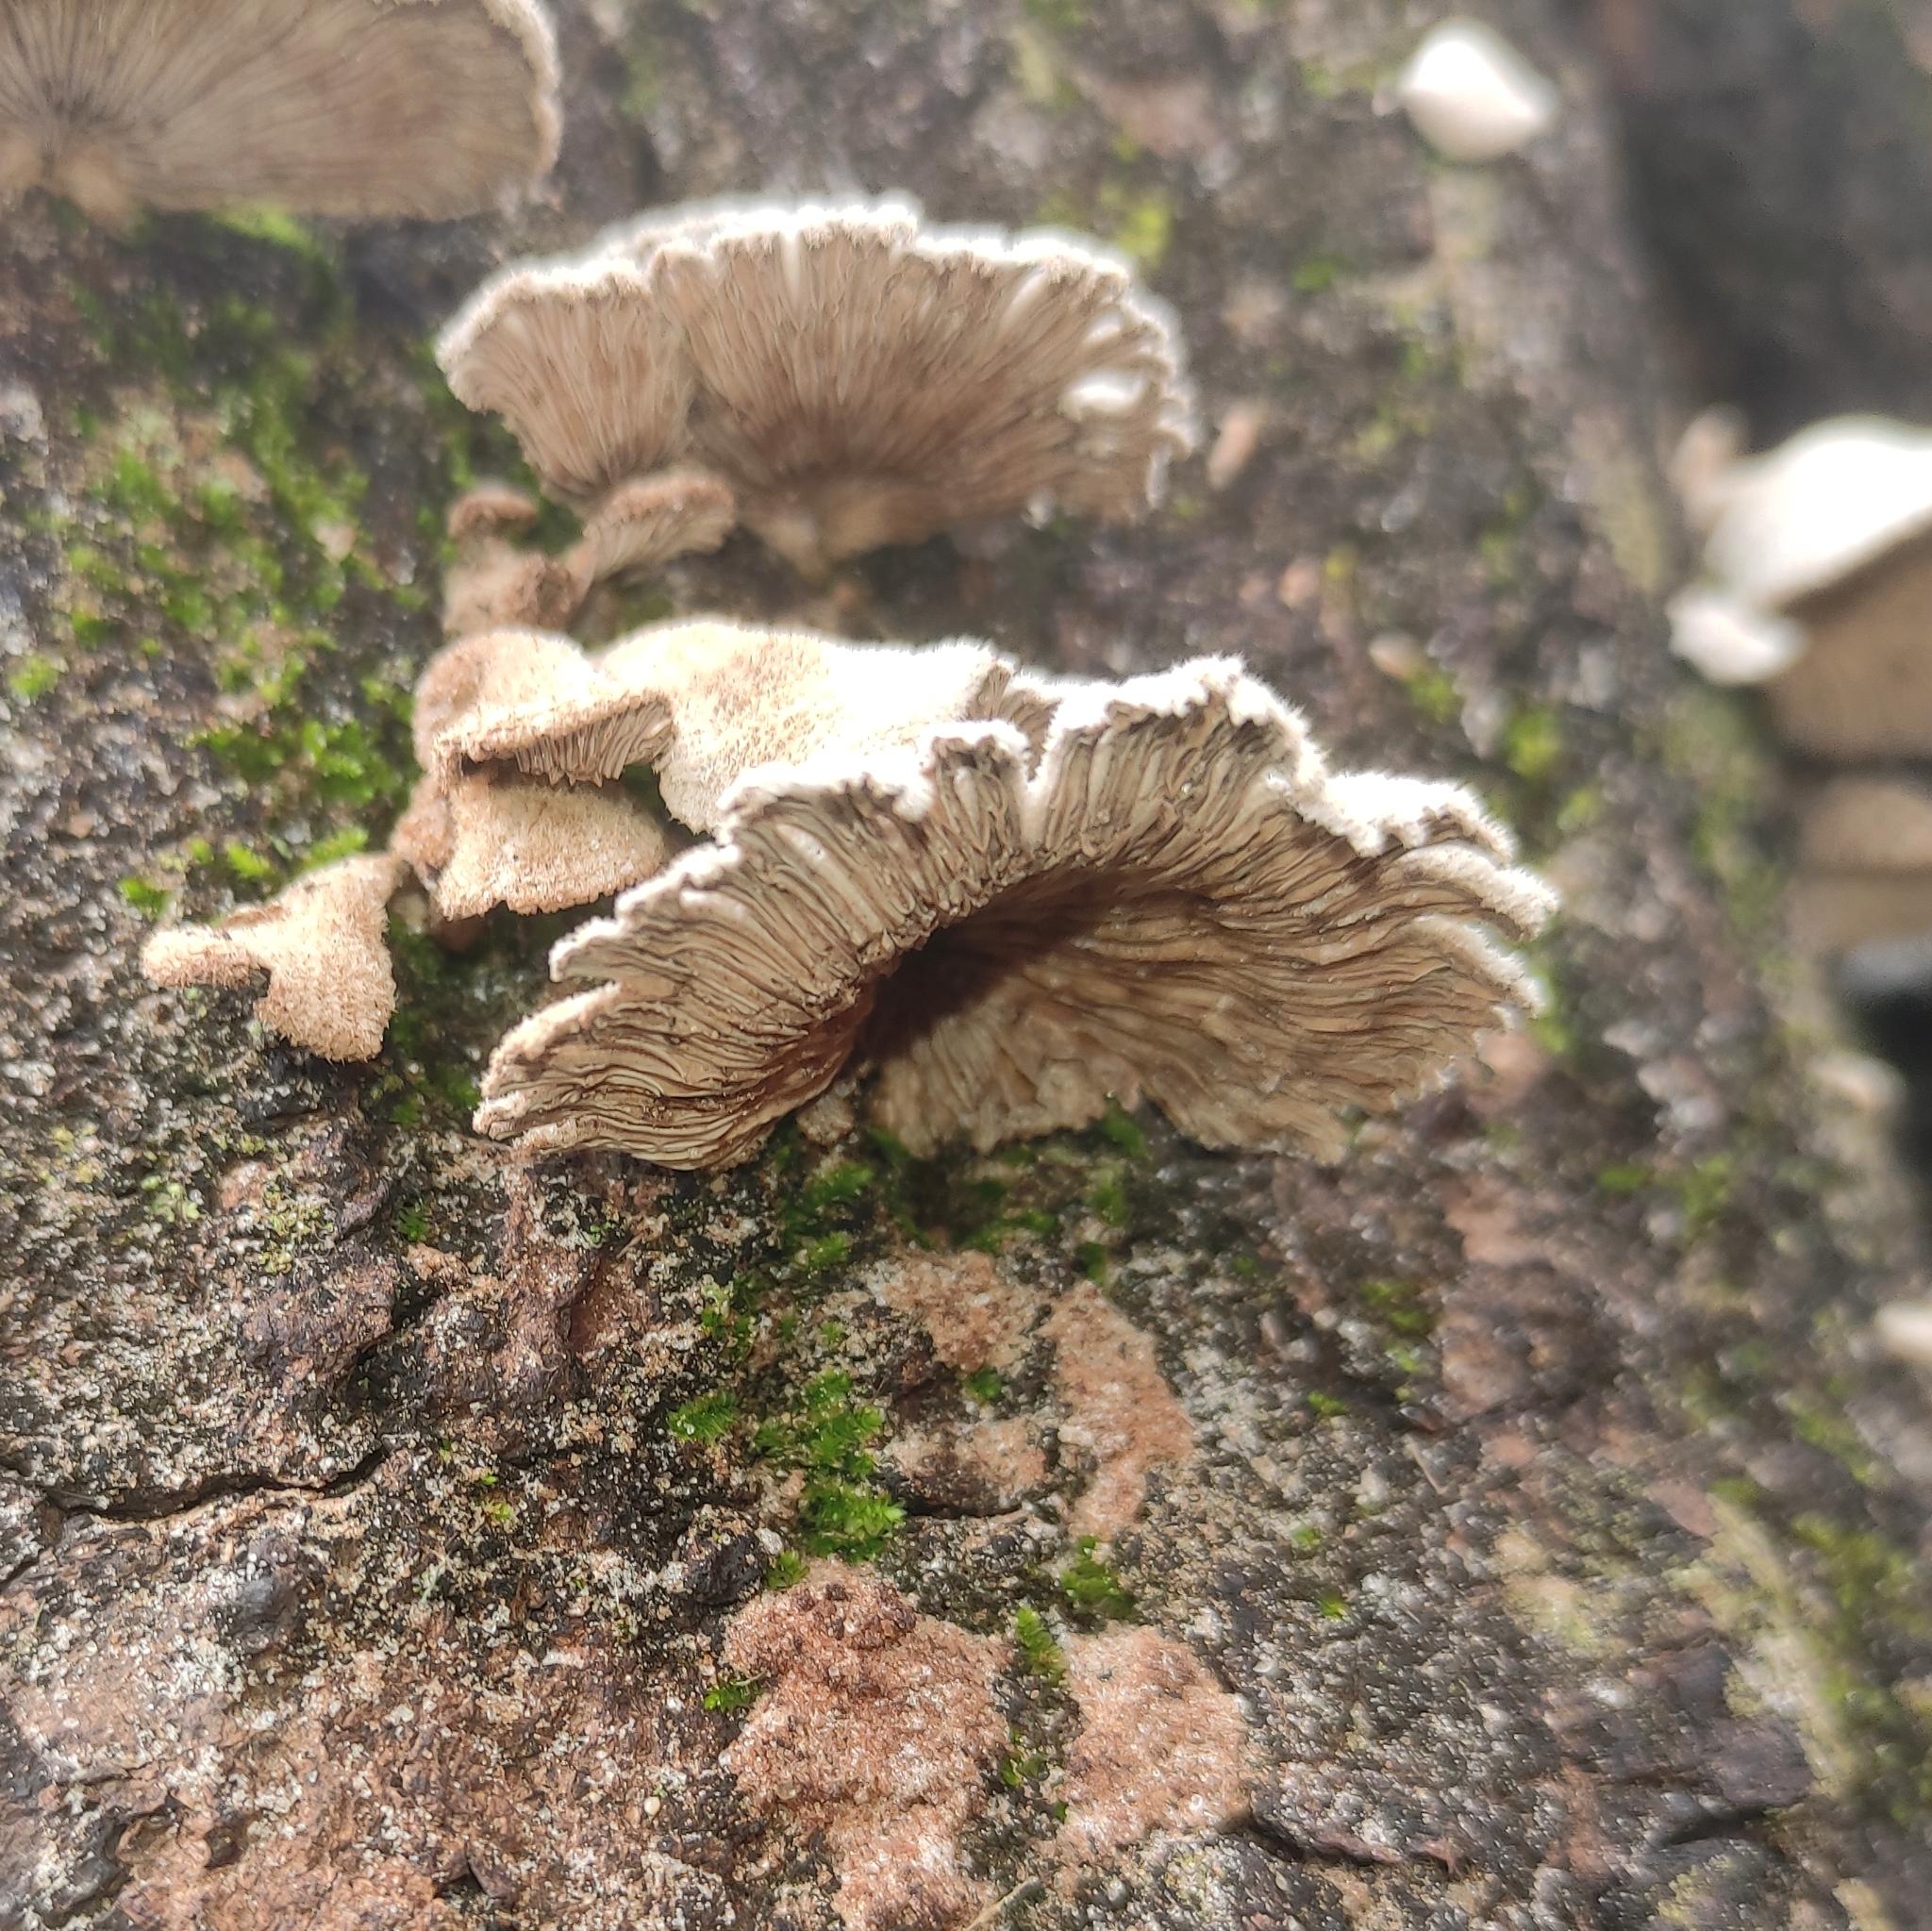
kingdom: Fungi
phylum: Basidiomycota
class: Agaricomycetes
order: Agaricales
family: Schizophyllaceae
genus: Schizophyllum
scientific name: Schizophyllum commune
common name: Common porecrust
